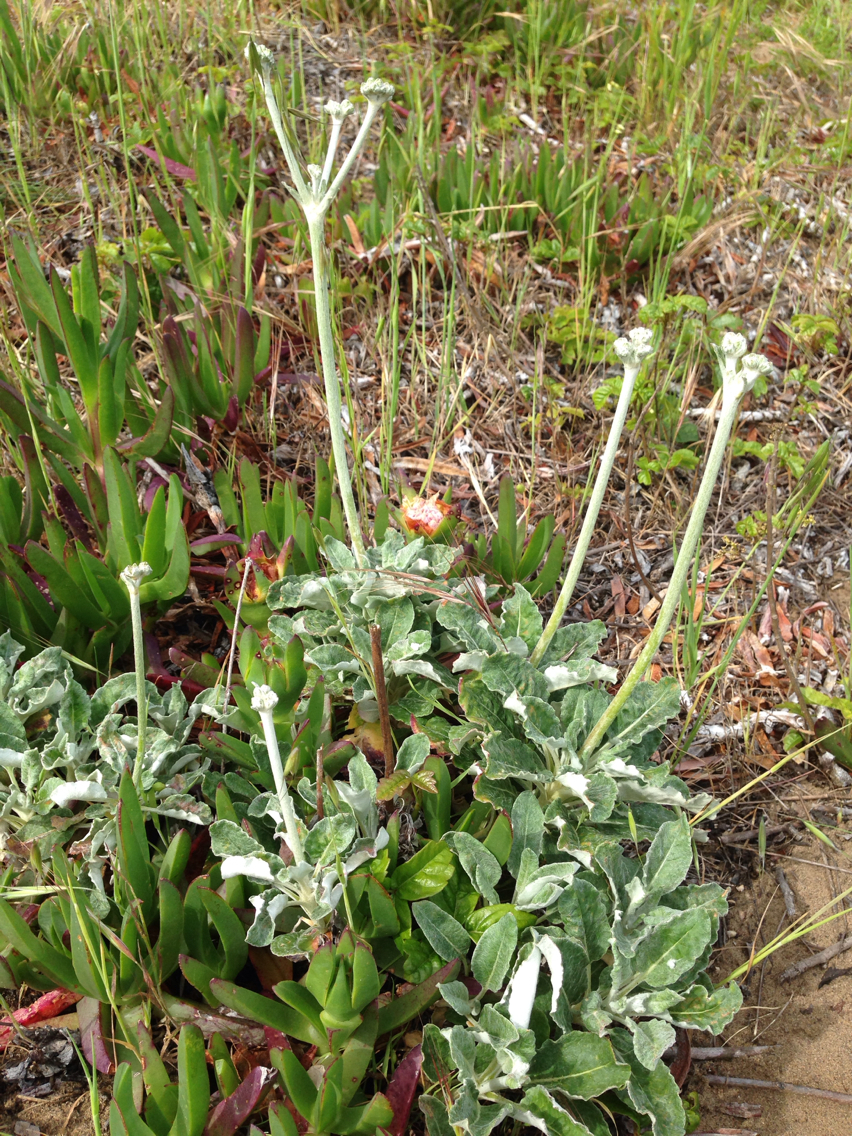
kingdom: Plantae
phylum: Tracheophyta
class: Magnoliopsida
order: Caryophyllales
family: Polygonaceae
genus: Eriogonum
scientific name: Eriogonum latifolium
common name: Seaside wild buckwheat
